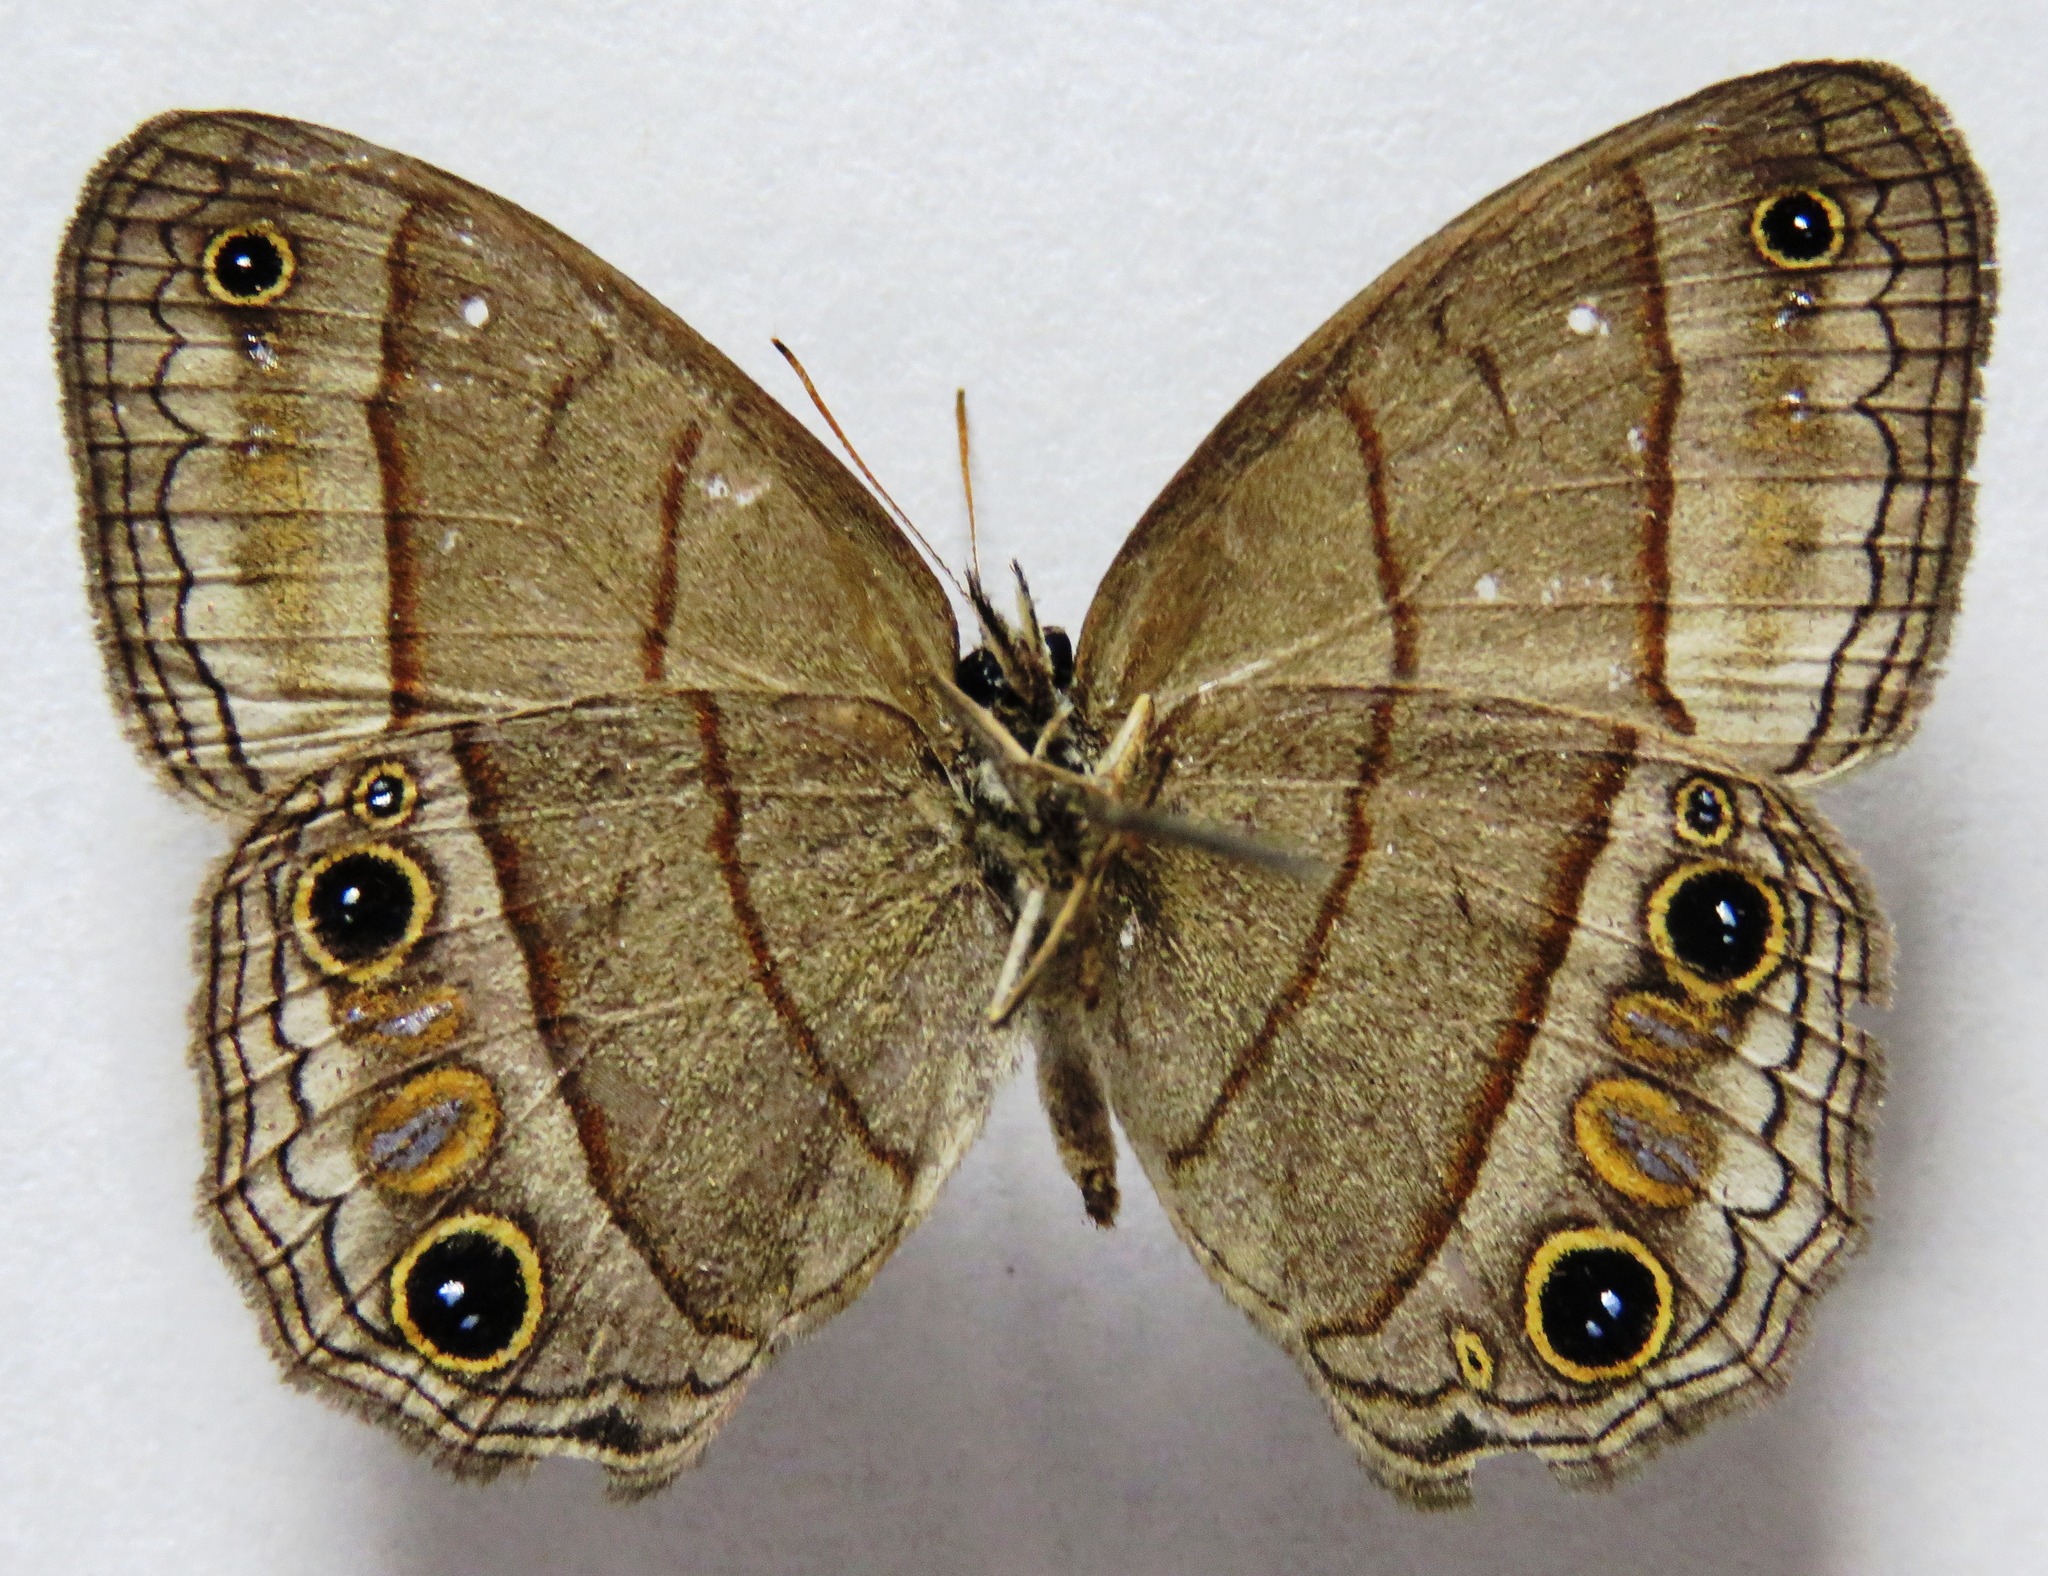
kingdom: Animalia
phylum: Arthropoda
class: Insecta
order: Lepidoptera
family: Nymphalidae
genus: Euptychia
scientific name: Euptychia Cissia pompilia
